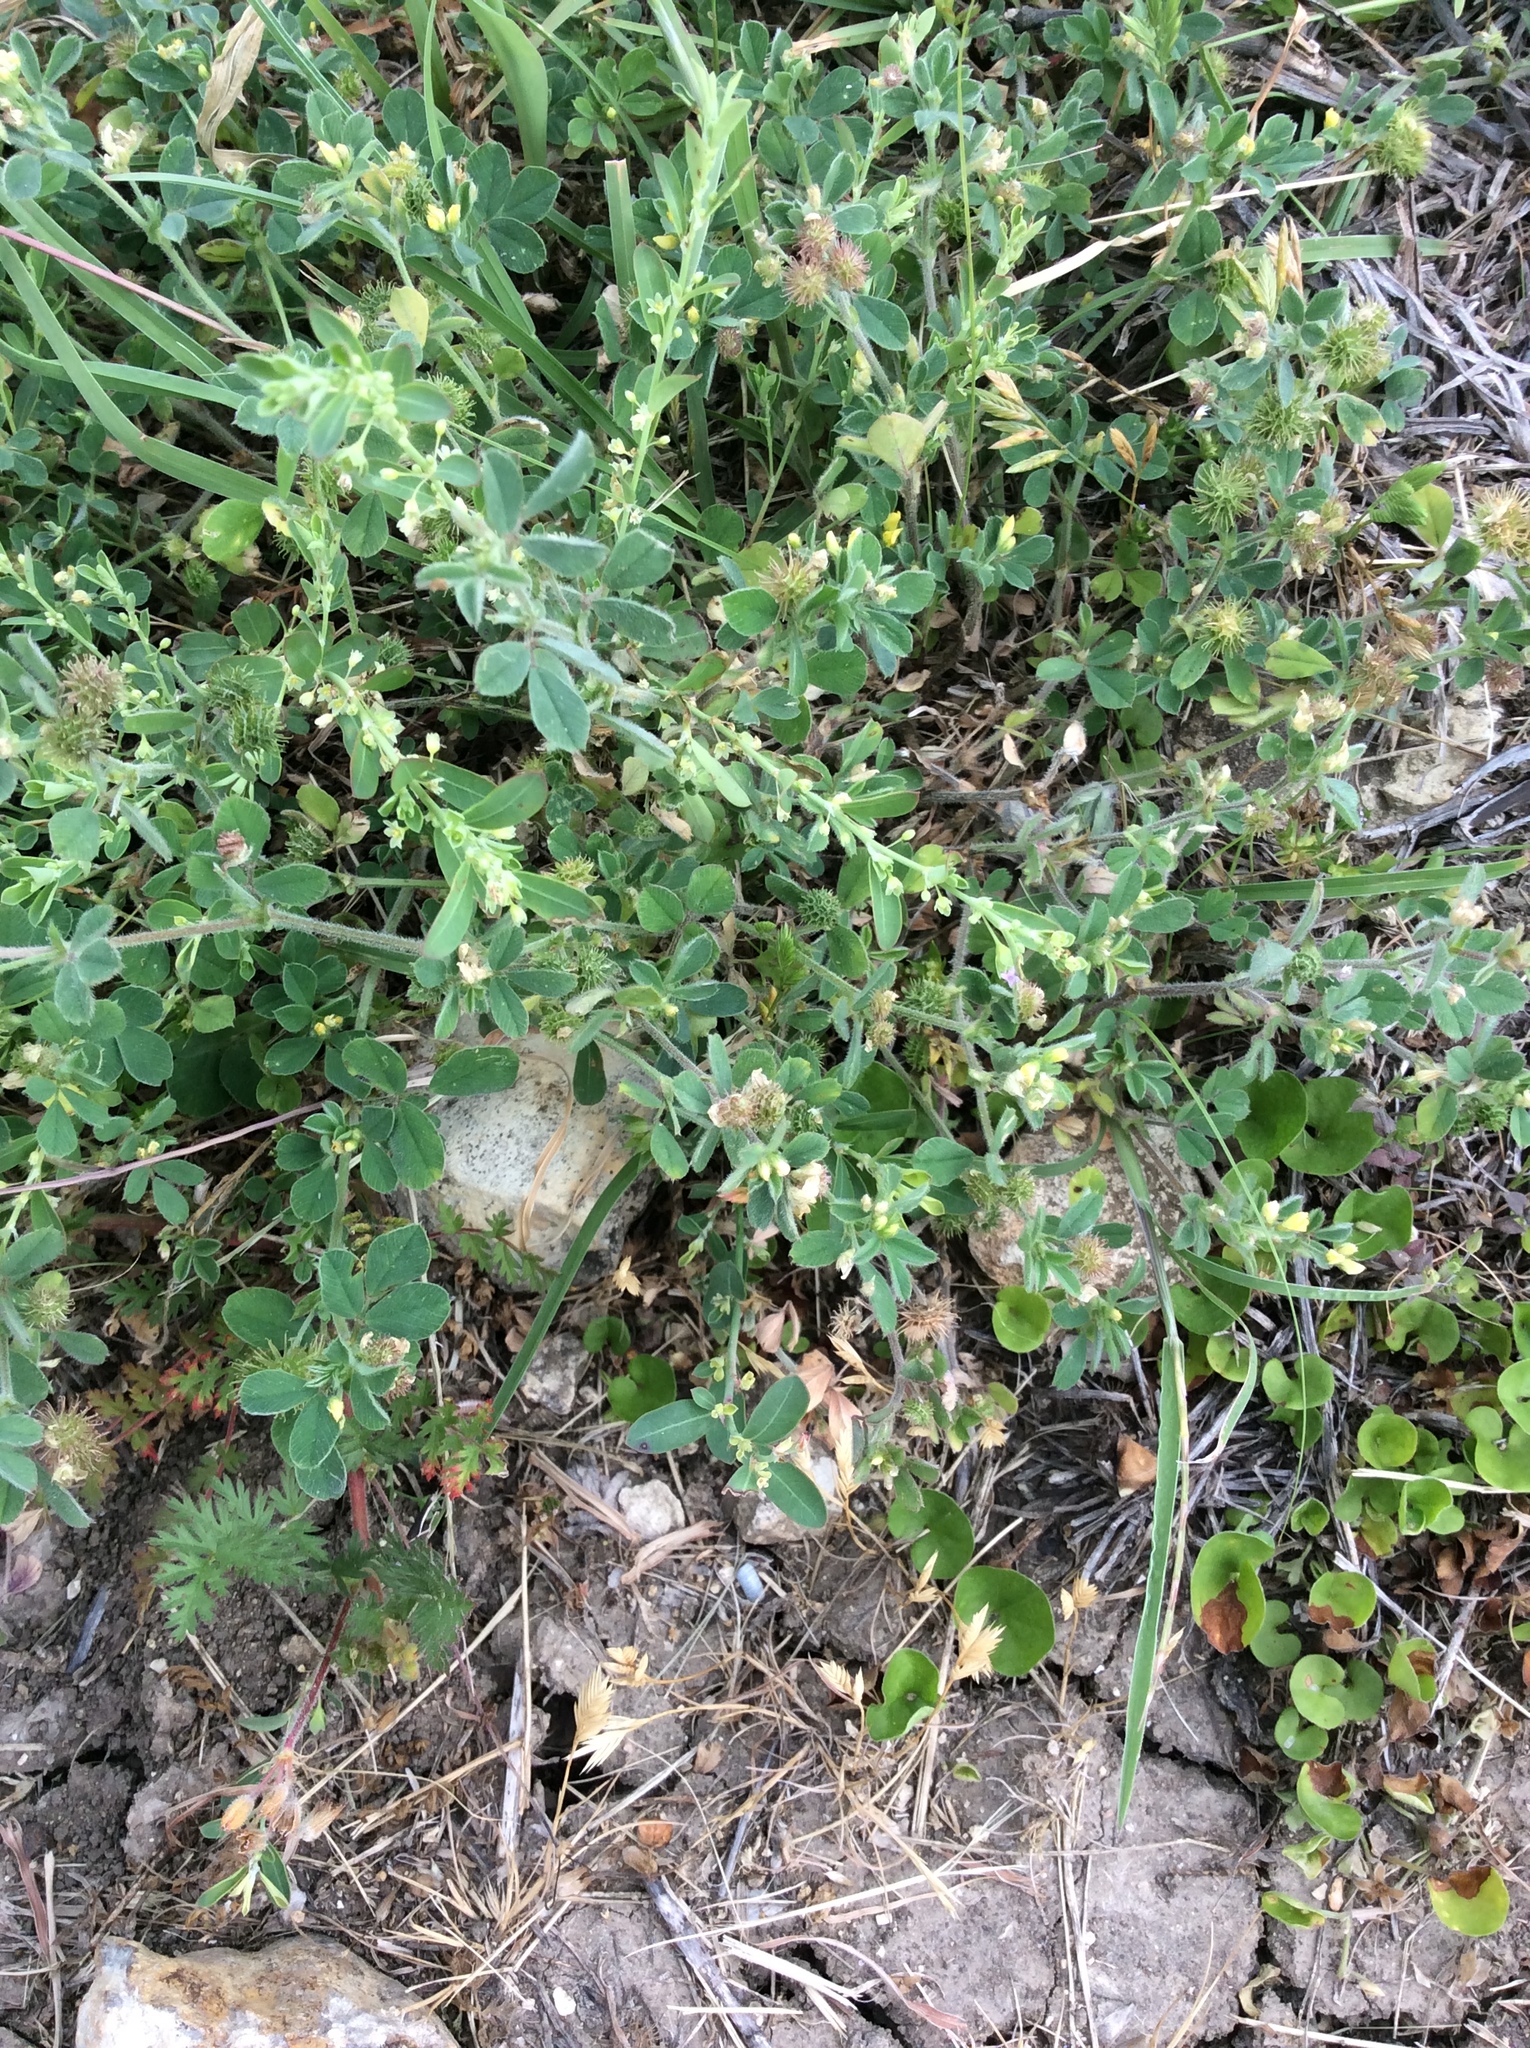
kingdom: Plantae
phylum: Tracheophyta
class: Magnoliopsida
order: Malpighiales
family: Phyllanthaceae
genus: Phyllanthus
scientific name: Phyllanthus polygonoides
